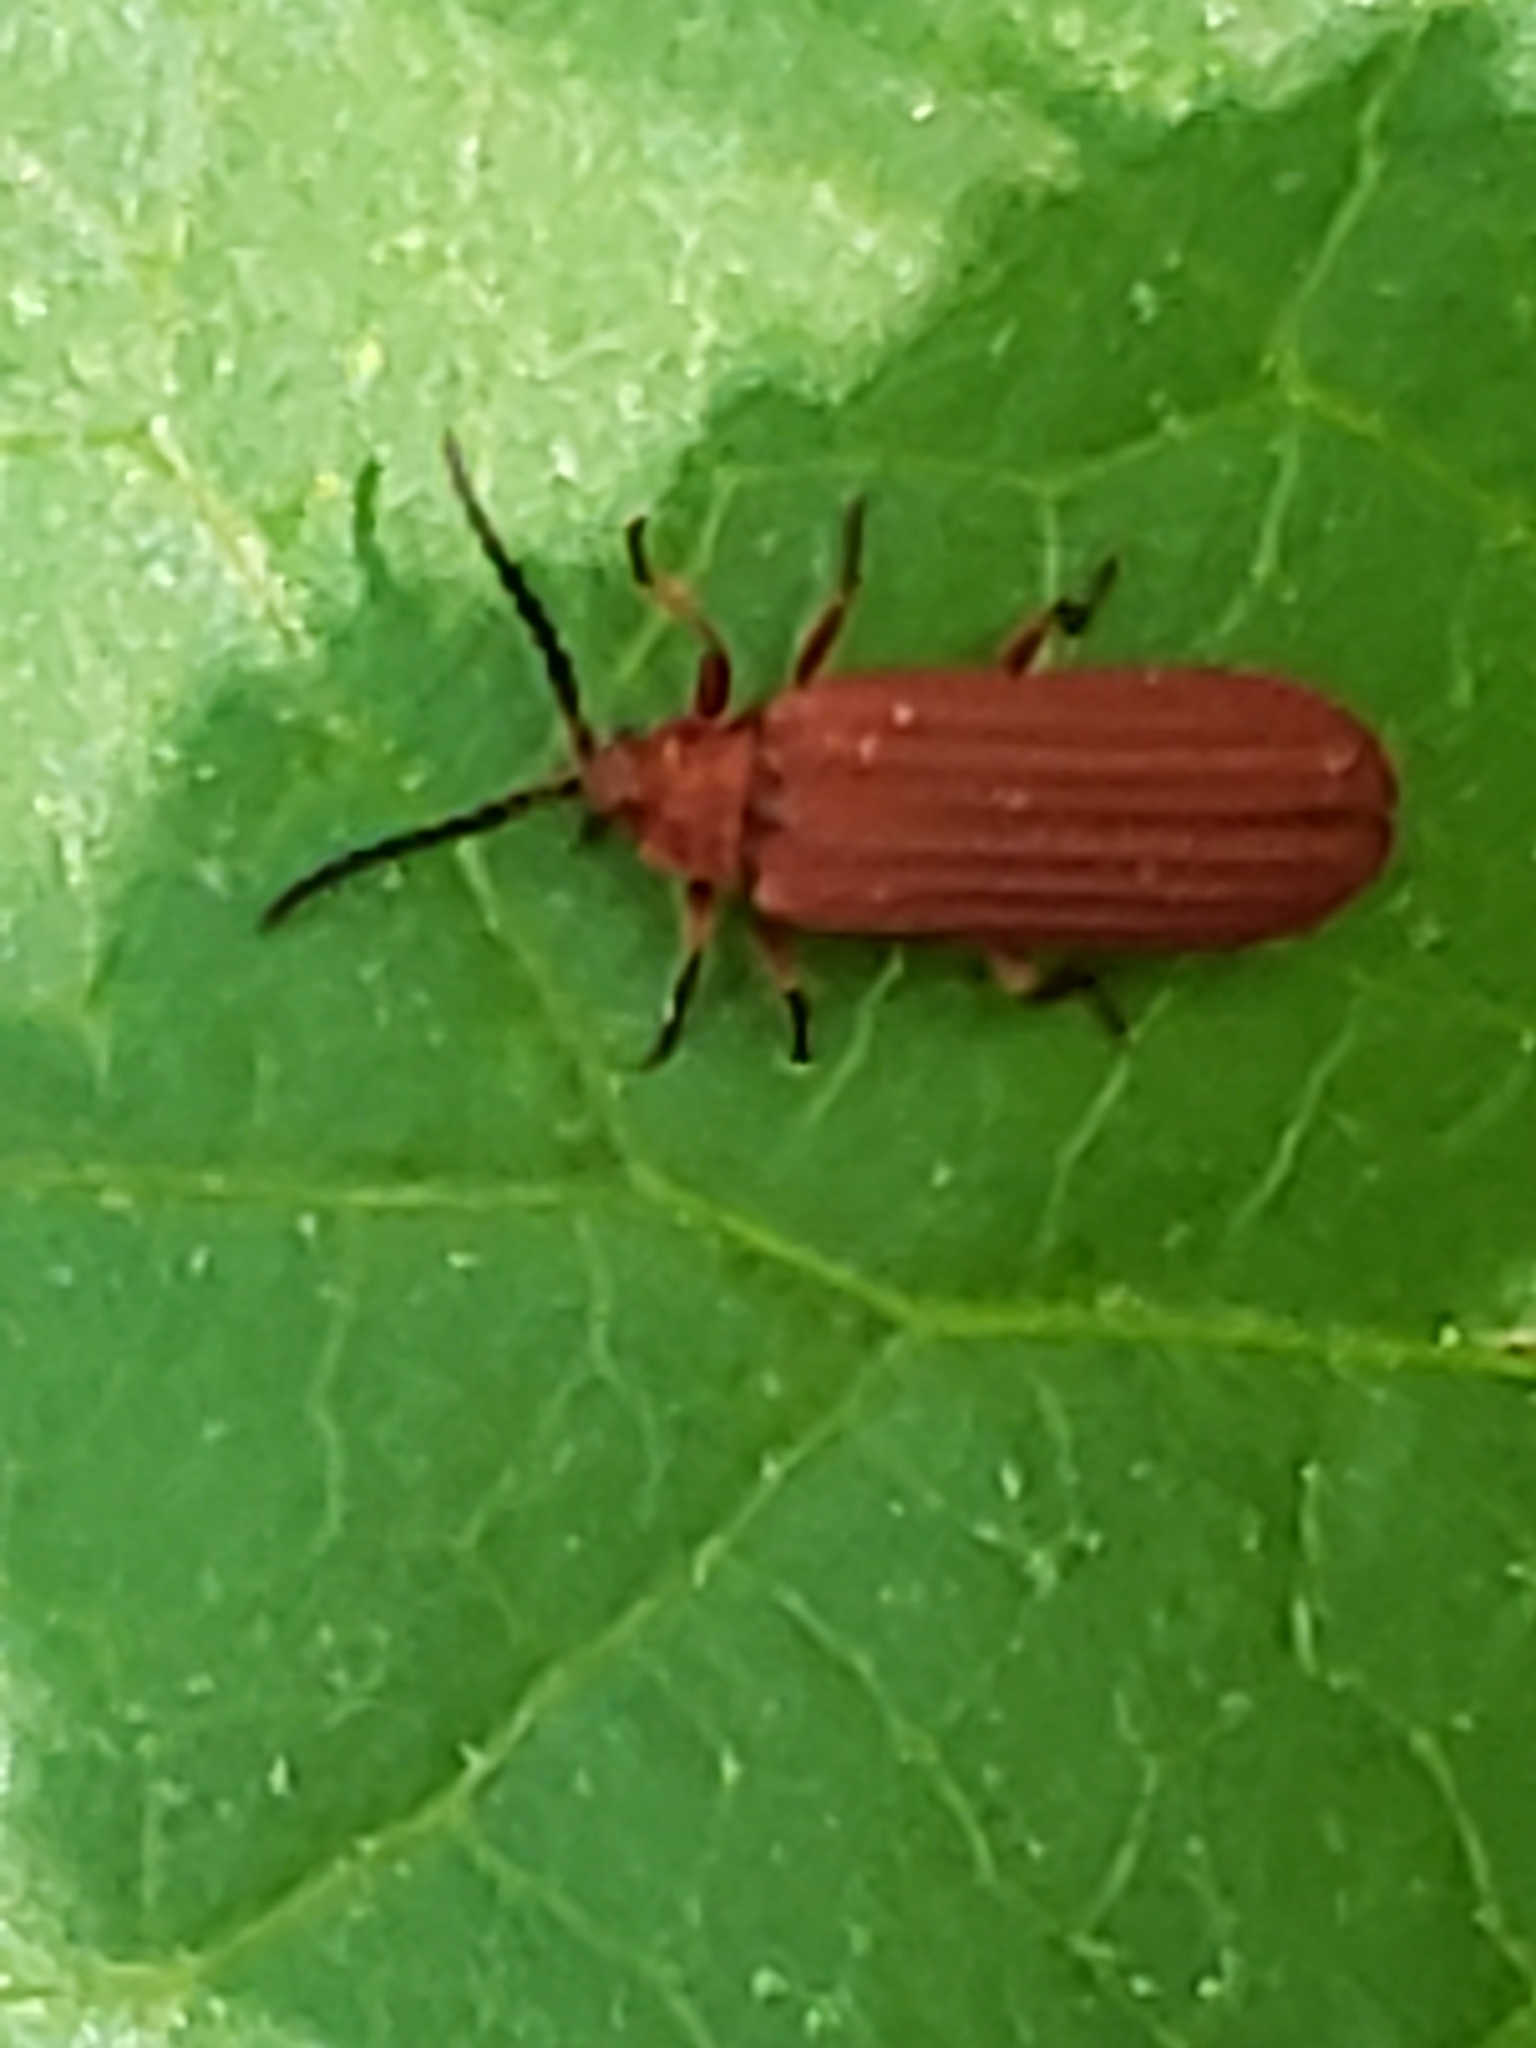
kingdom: Animalia
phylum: Arthropoda
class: Insecta
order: Coleoptera
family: Lycidae
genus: Punicealis
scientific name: Punicealis
